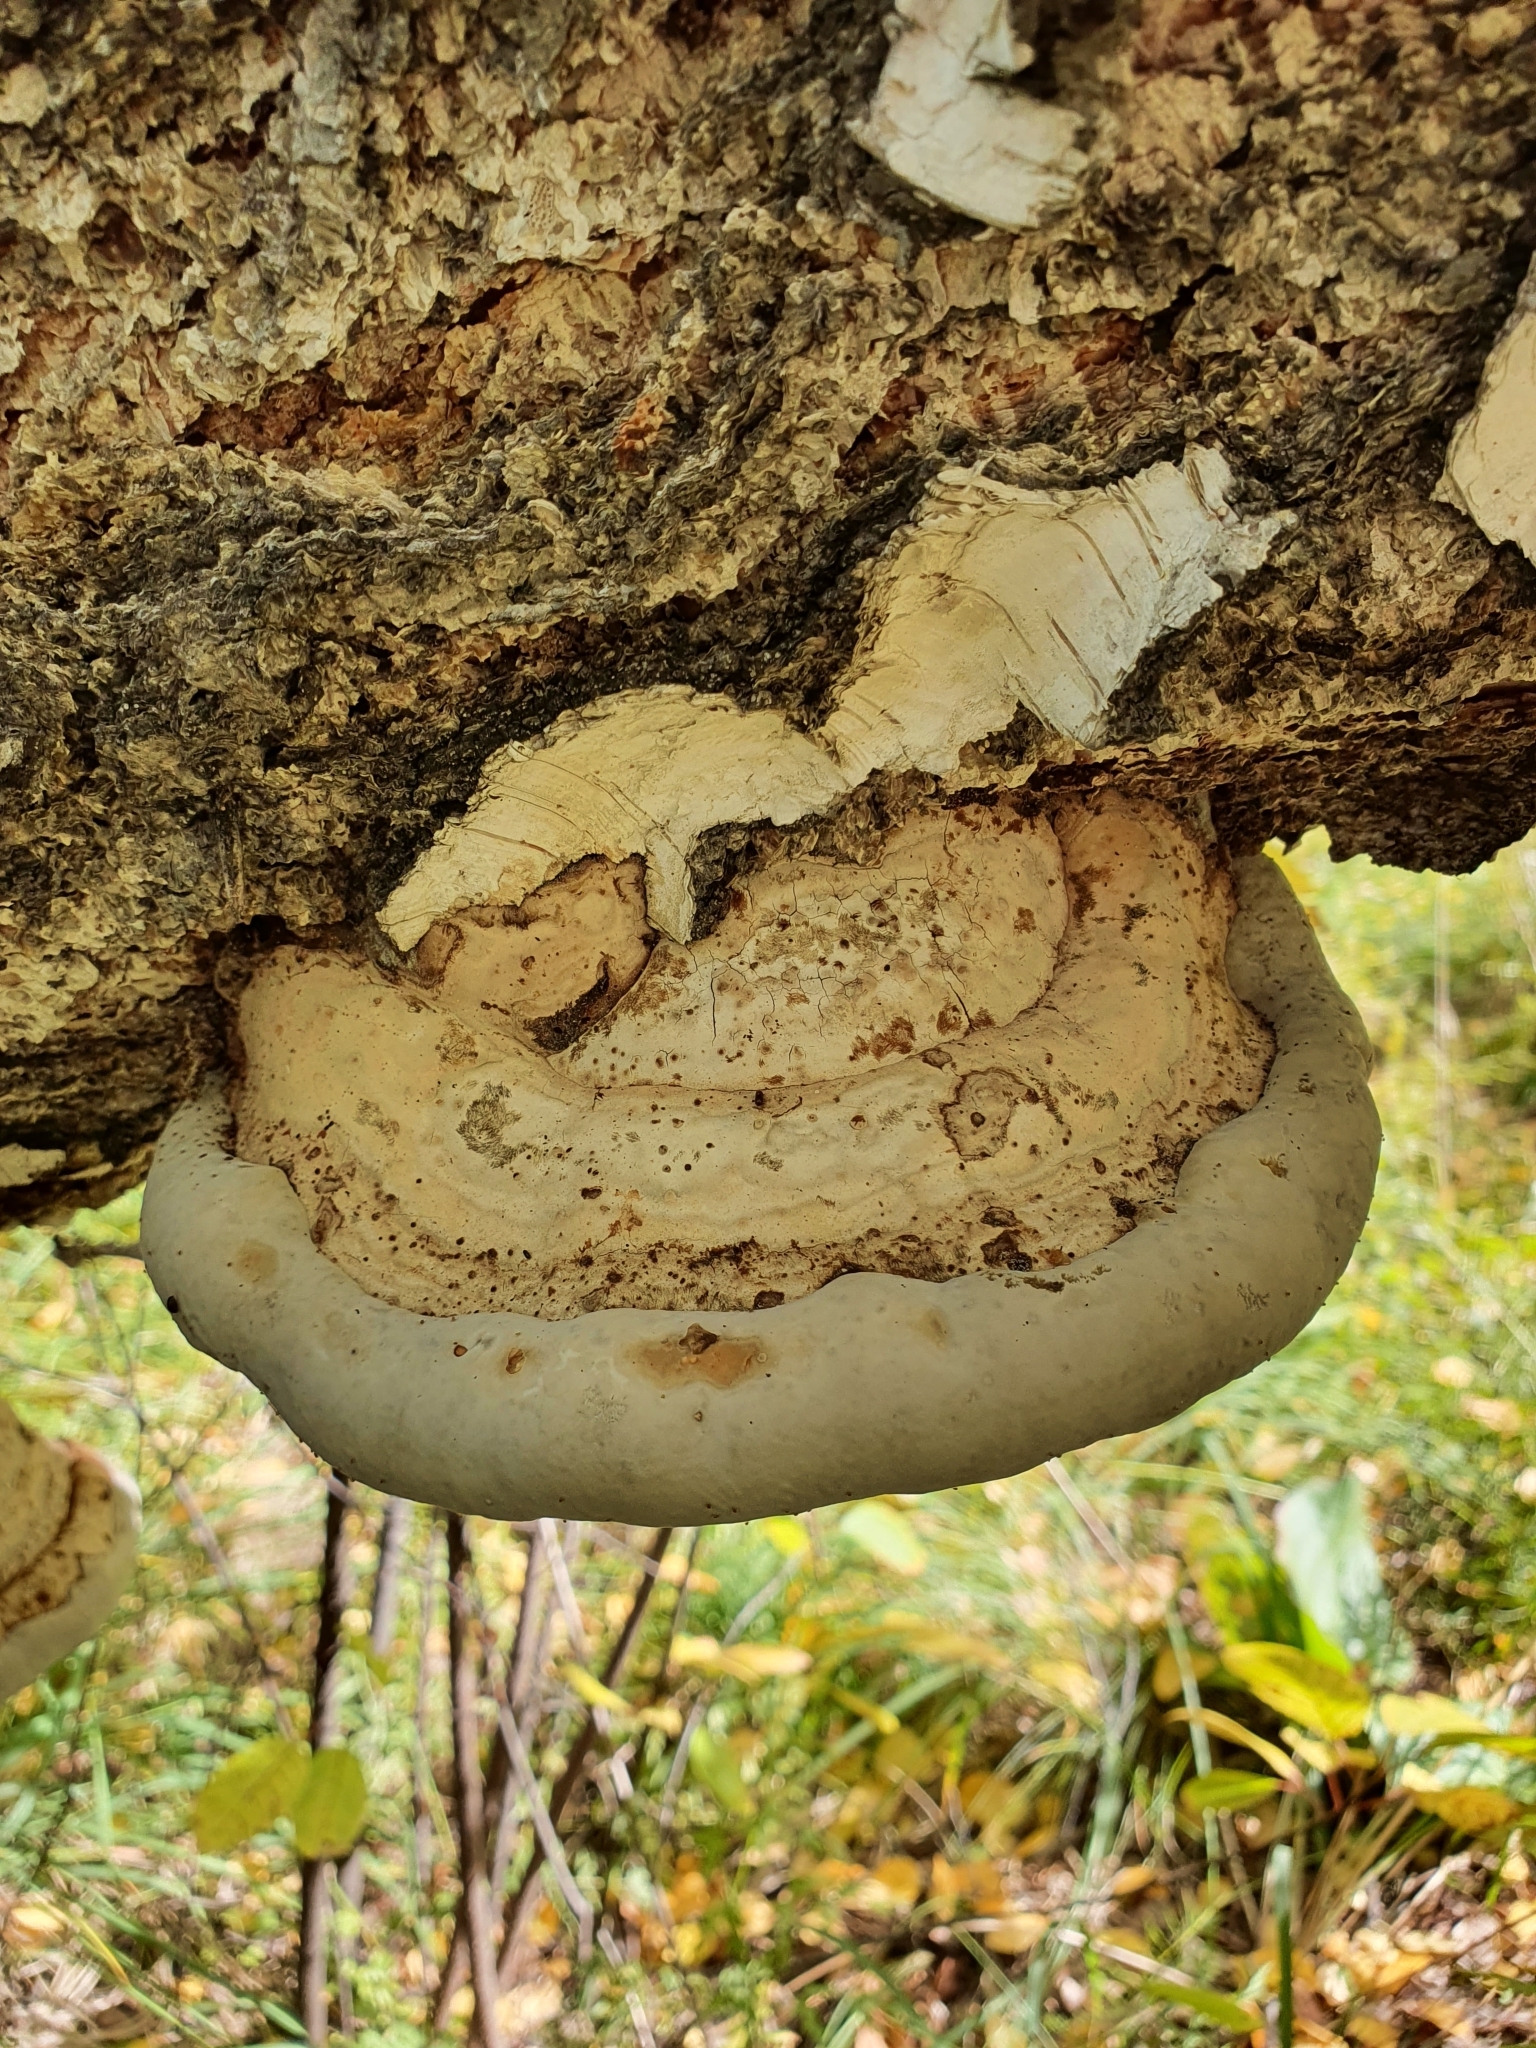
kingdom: Fungi
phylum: Basidiomycota
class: Agaricomycetes
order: Polyporales
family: Polyporaceae
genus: Fomes
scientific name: Fomes fomentarius
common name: Hoof fungus
